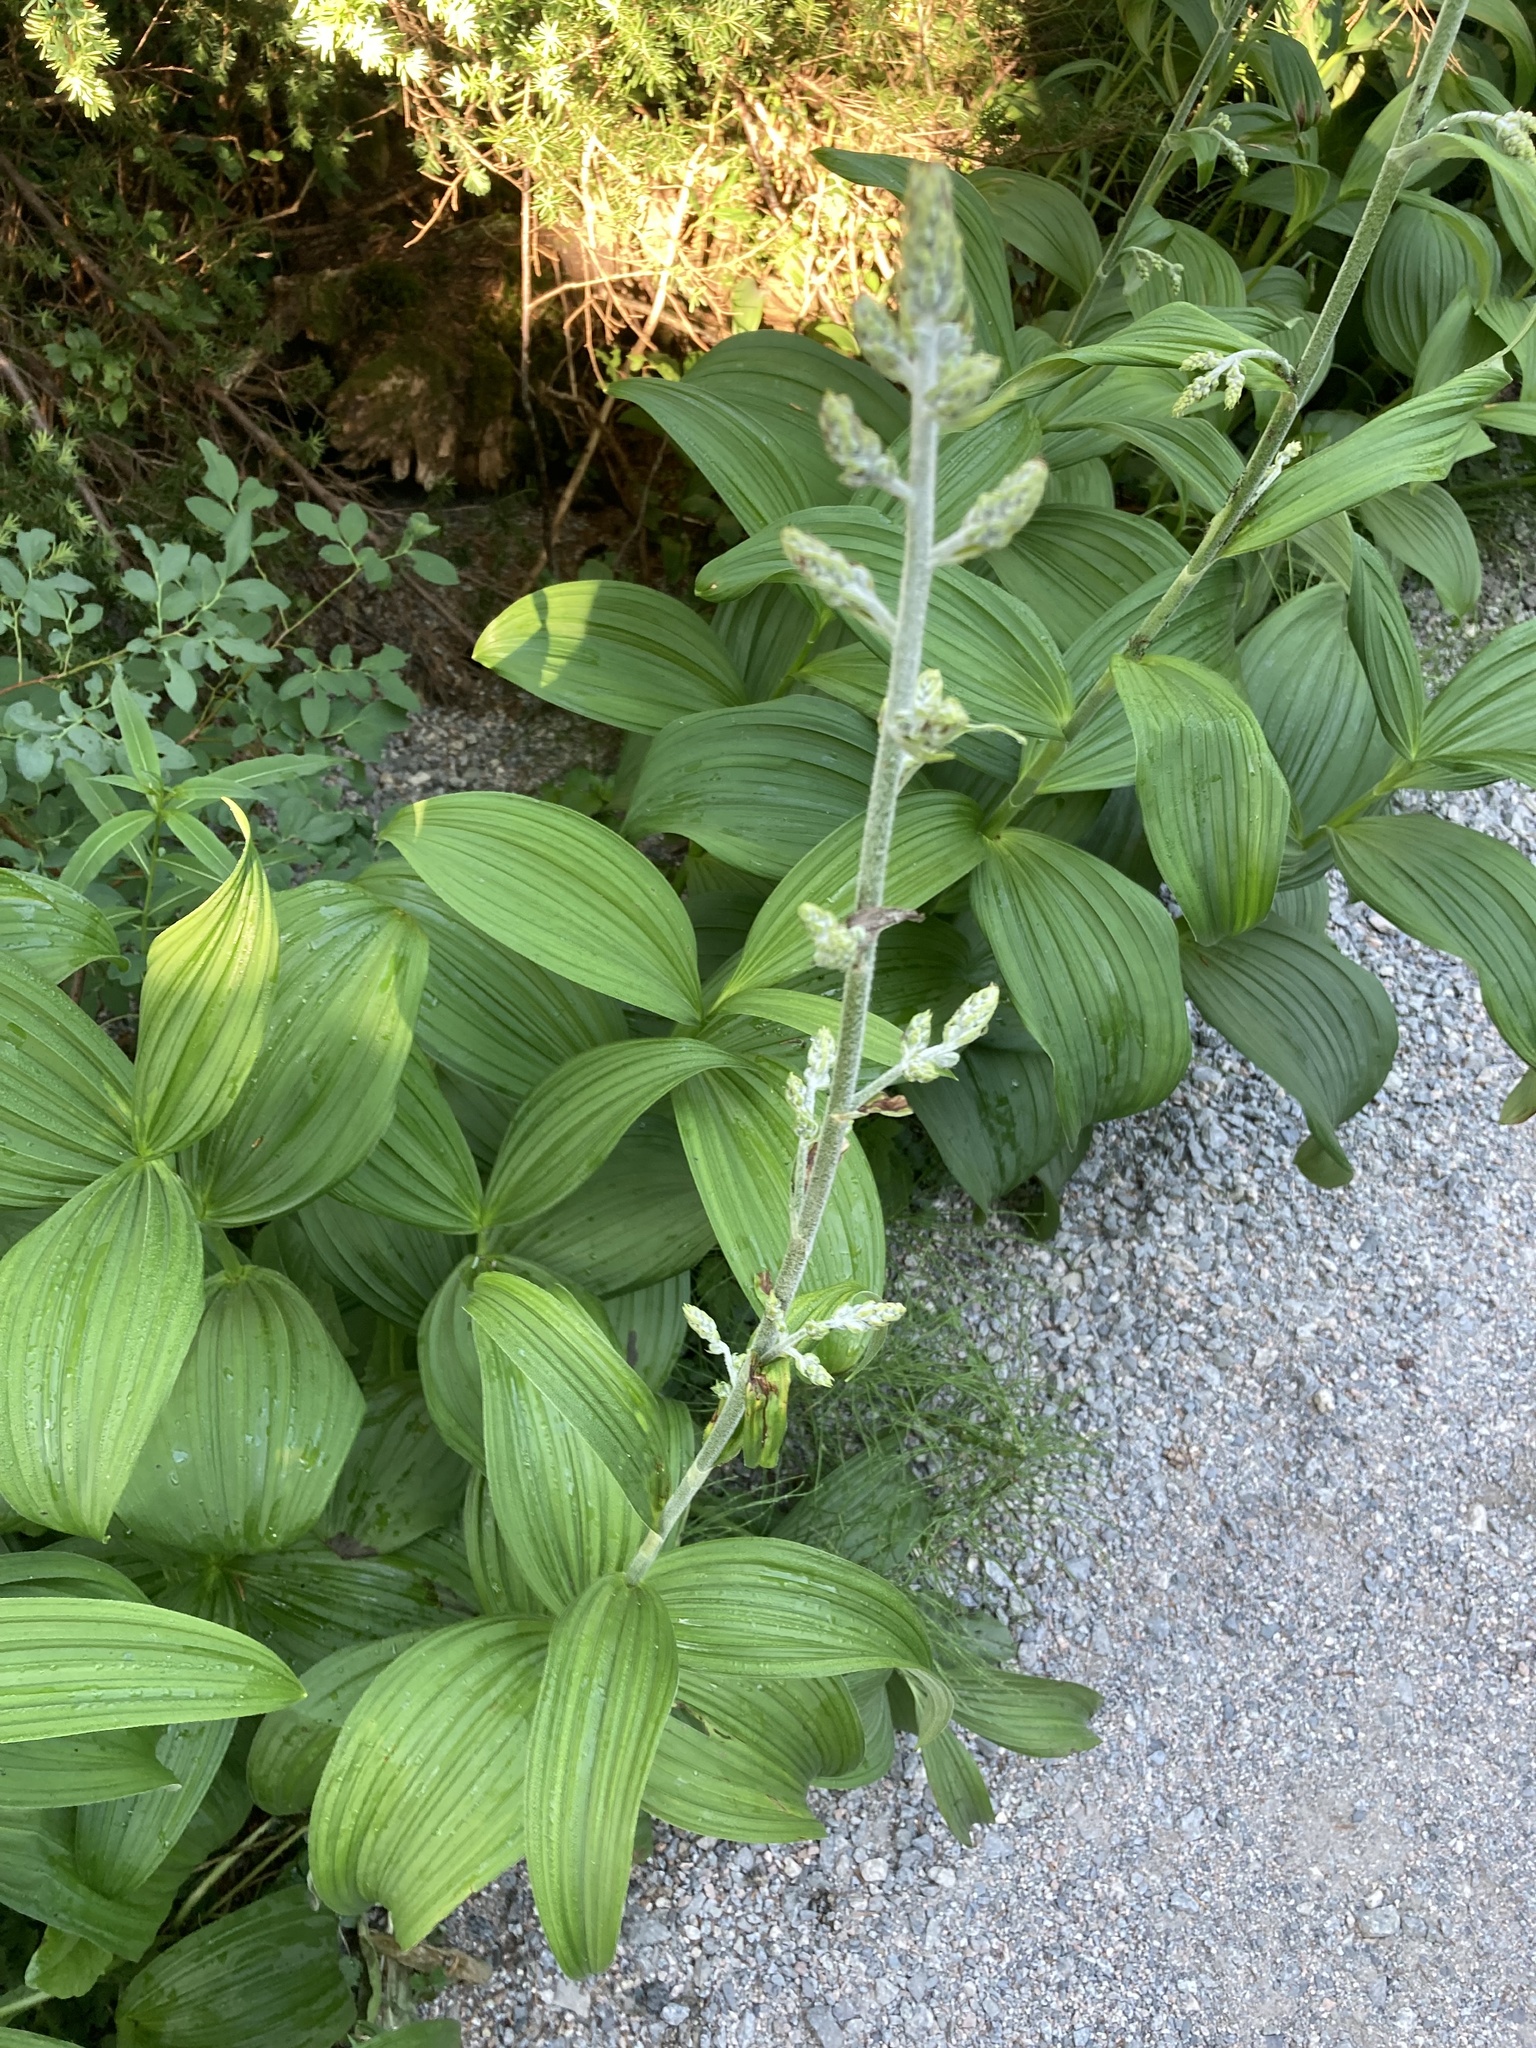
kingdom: Plantae
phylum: Tracheophyta
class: Liliopsida
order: Liliales
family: Melanthiaceae
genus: Veratrum
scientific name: Veratrum viride
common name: American false hellebore
